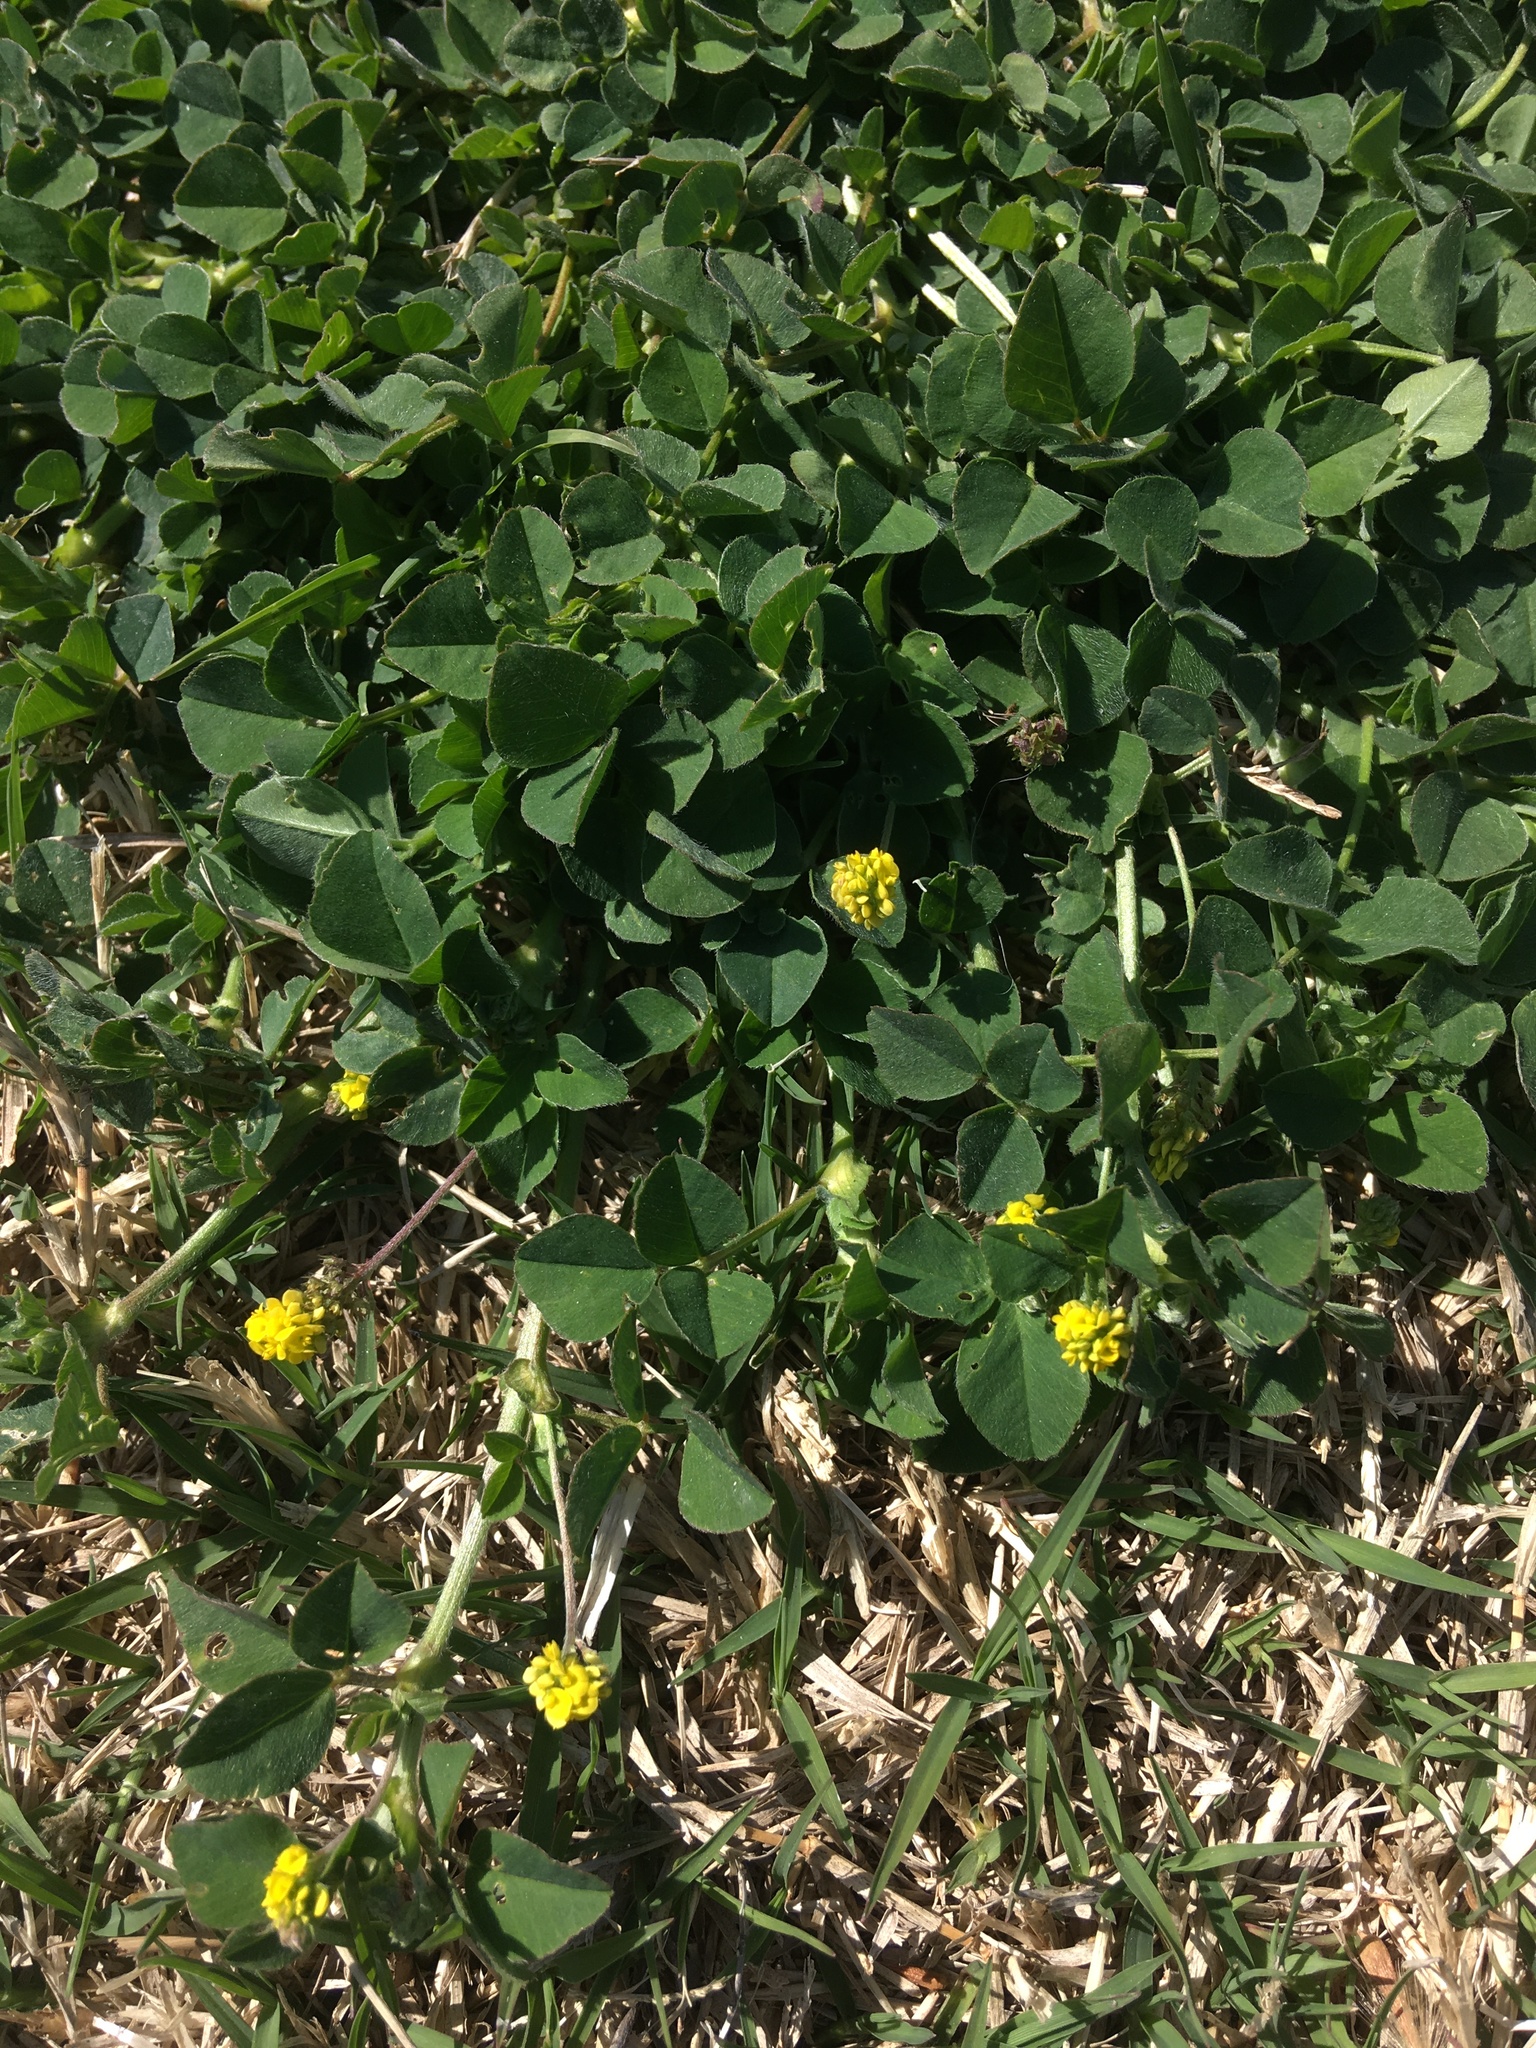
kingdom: Plantae
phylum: Tracheophyta
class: Magnoliopsida
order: Fabales
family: Fabaceae
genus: Medicago
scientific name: Medicago lupulina
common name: Black medick
